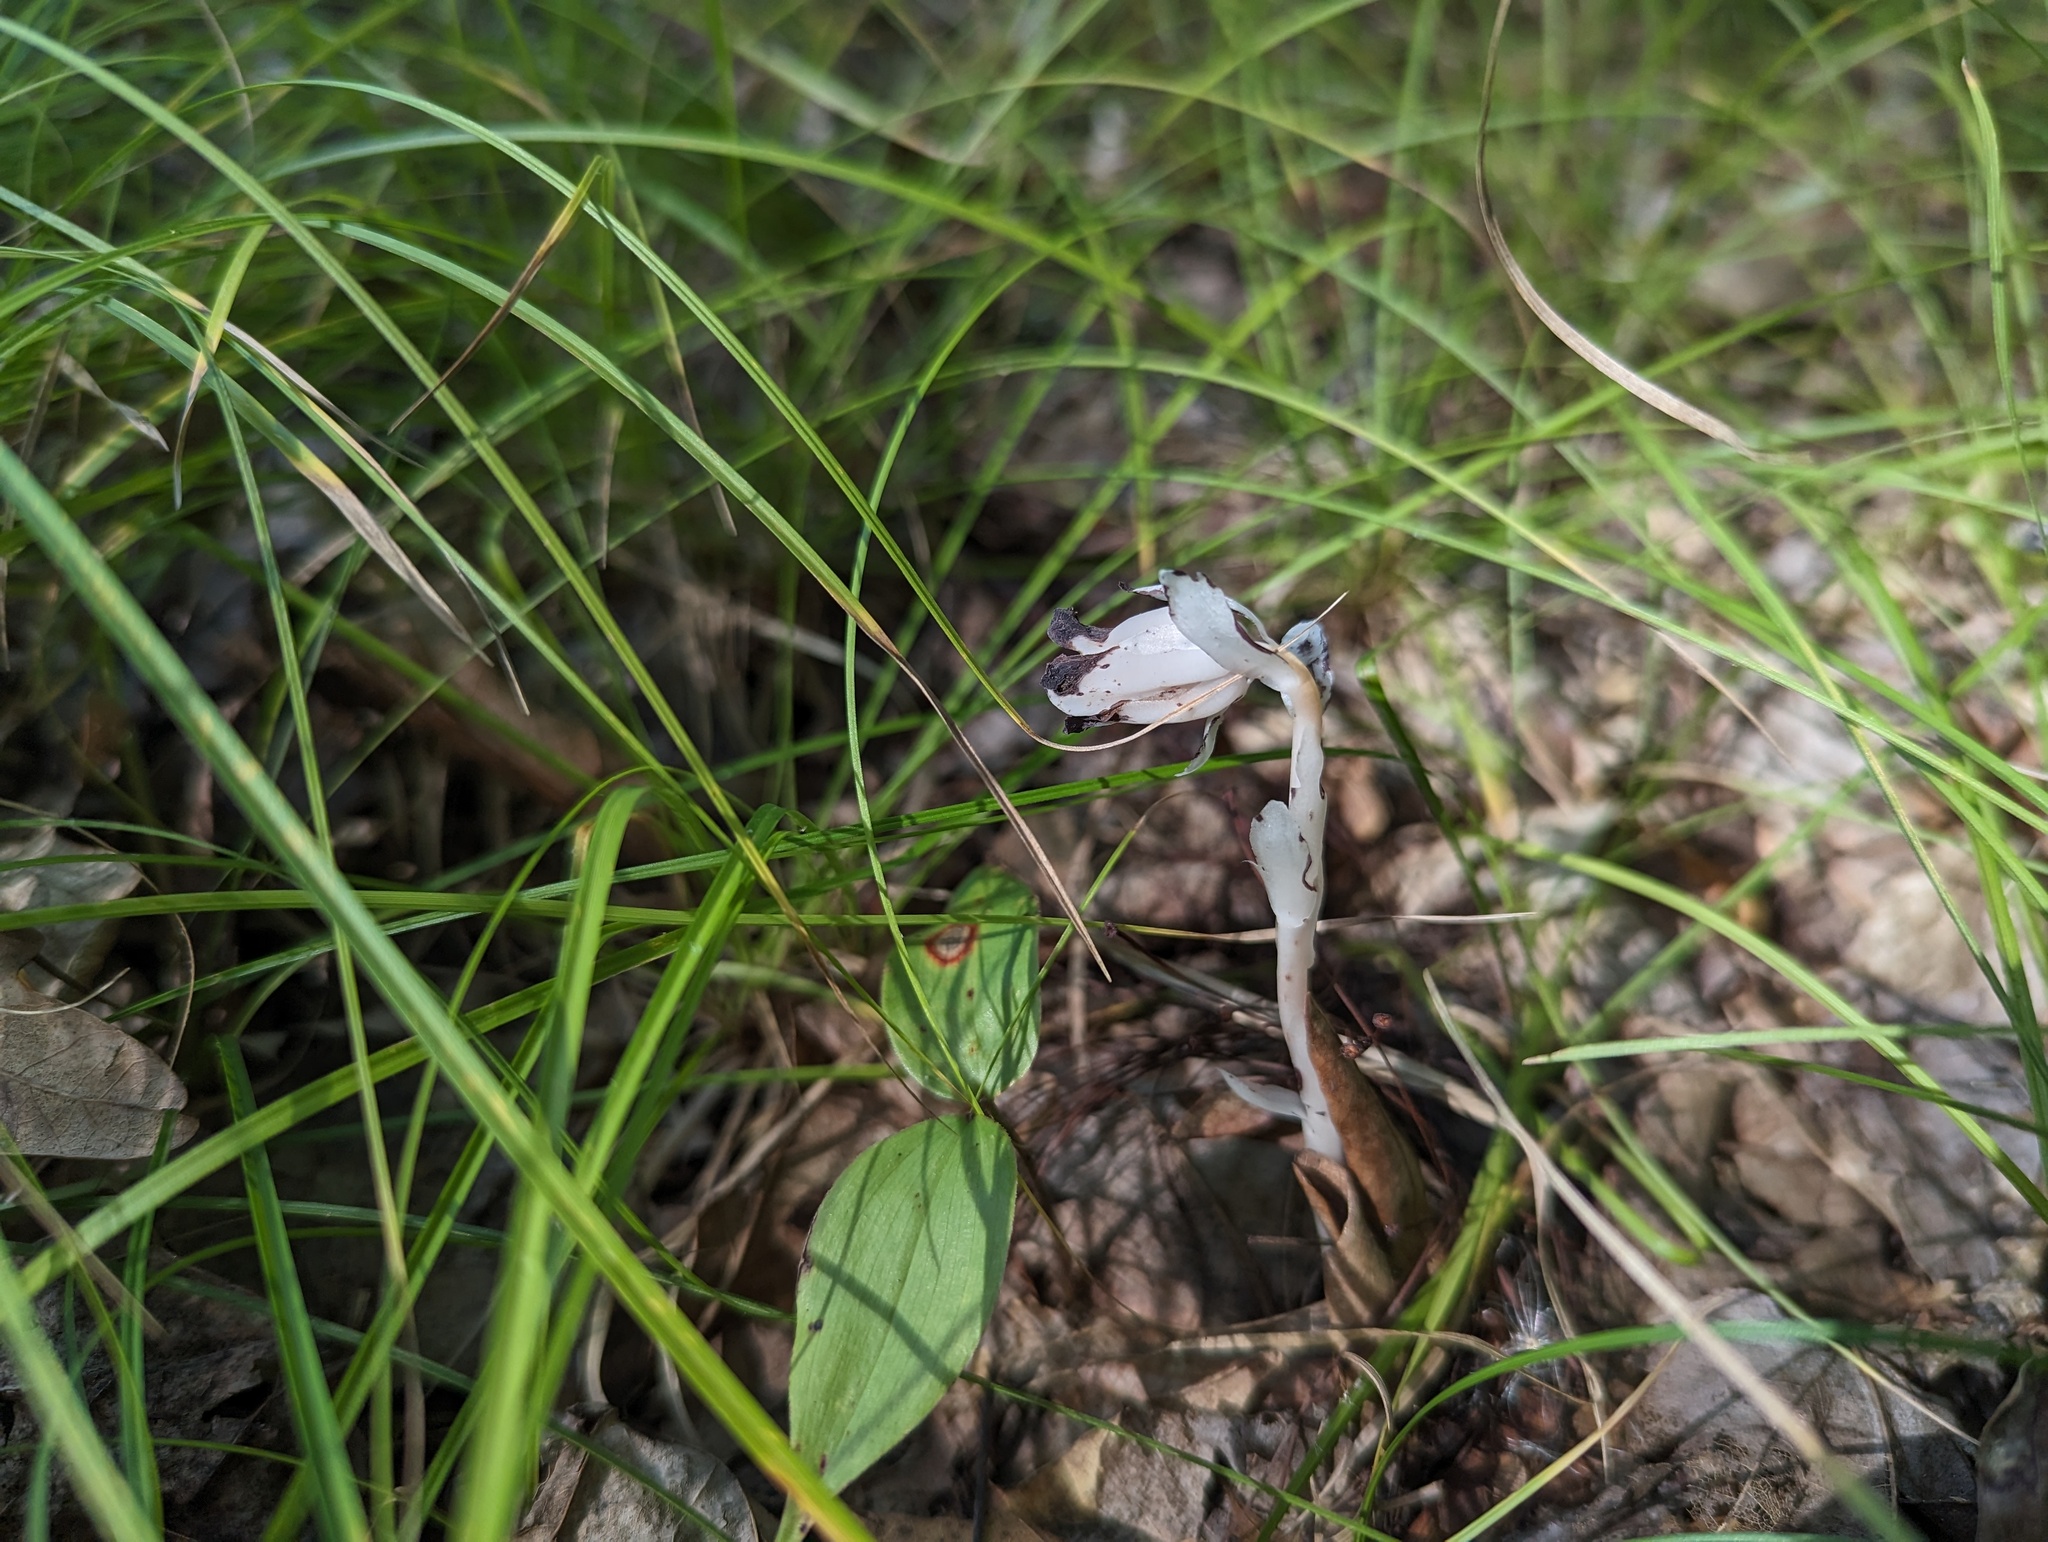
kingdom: Plantae
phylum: Tracheophyta
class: Magnoliopsida
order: Ericales
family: Ericaceae
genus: Monotropa
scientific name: Monotropa uniflora
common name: Convulsion root
